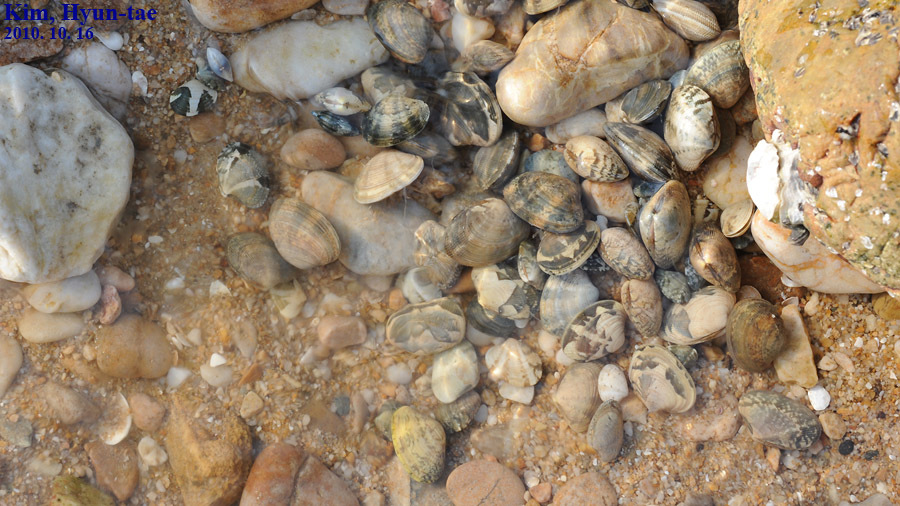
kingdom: Animalia
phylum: Mollusca
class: Bivalvia
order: Venerida
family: Veneridae
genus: Ruditapes
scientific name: Ruditapes philippinarum
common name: Manila clam
